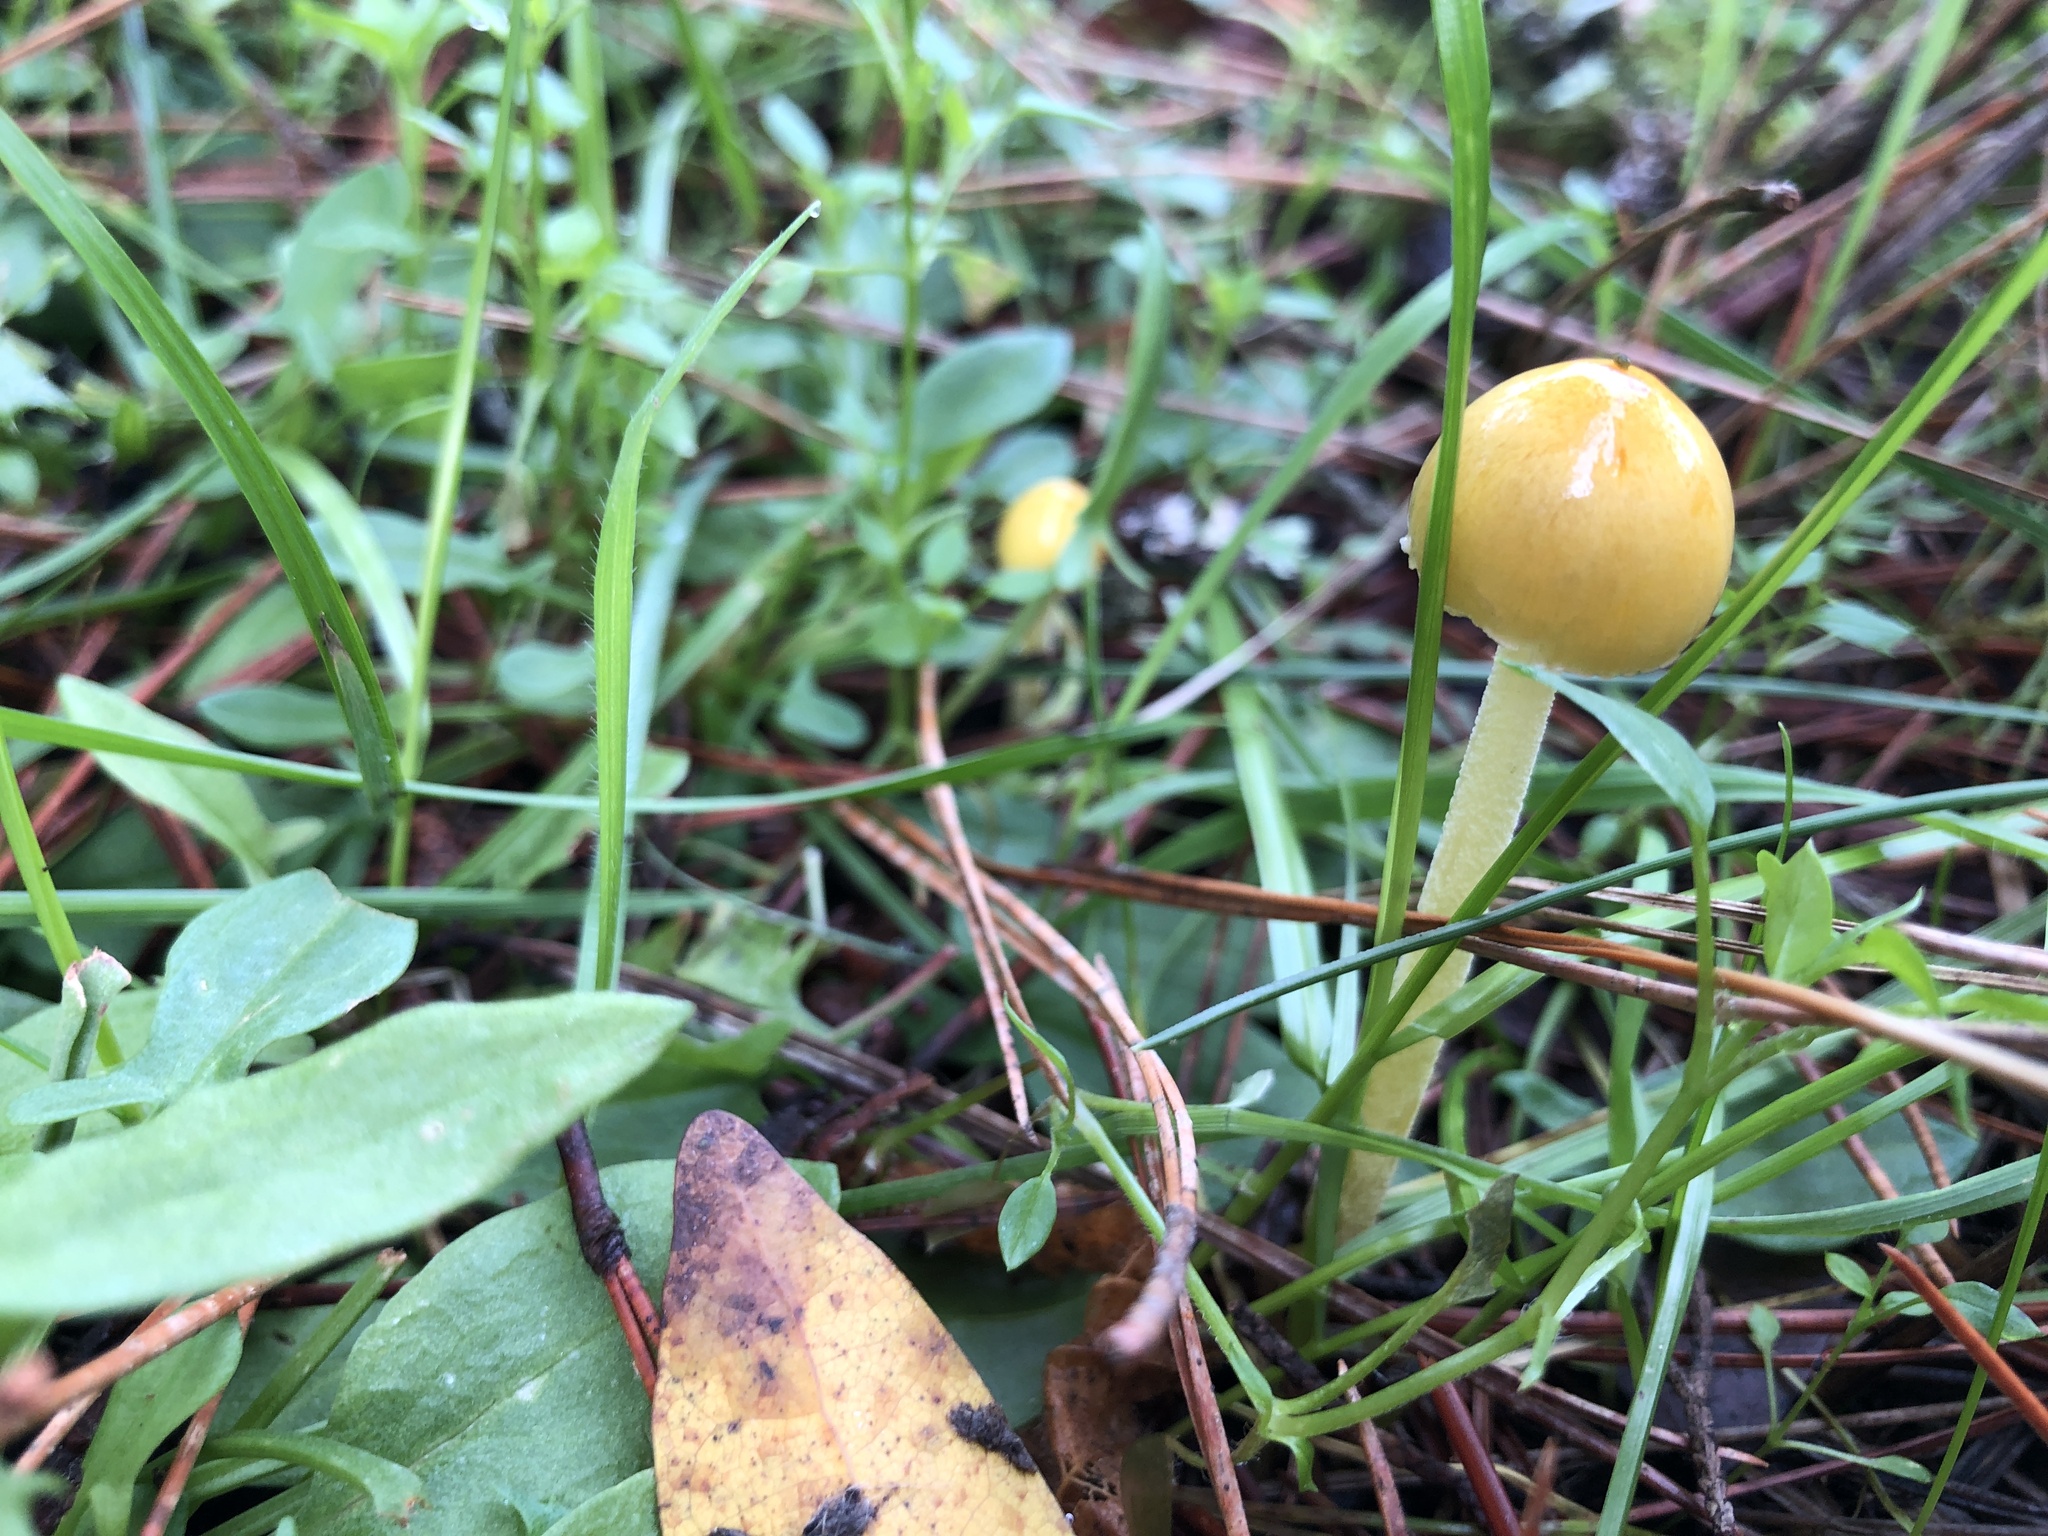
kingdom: Fungi
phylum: Basidiomycota
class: Agaricomycetes
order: Agaricales
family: Bolbitiaceae
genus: Bolbitius
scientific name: Bolbitius titubans
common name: Yellow fieldcap
